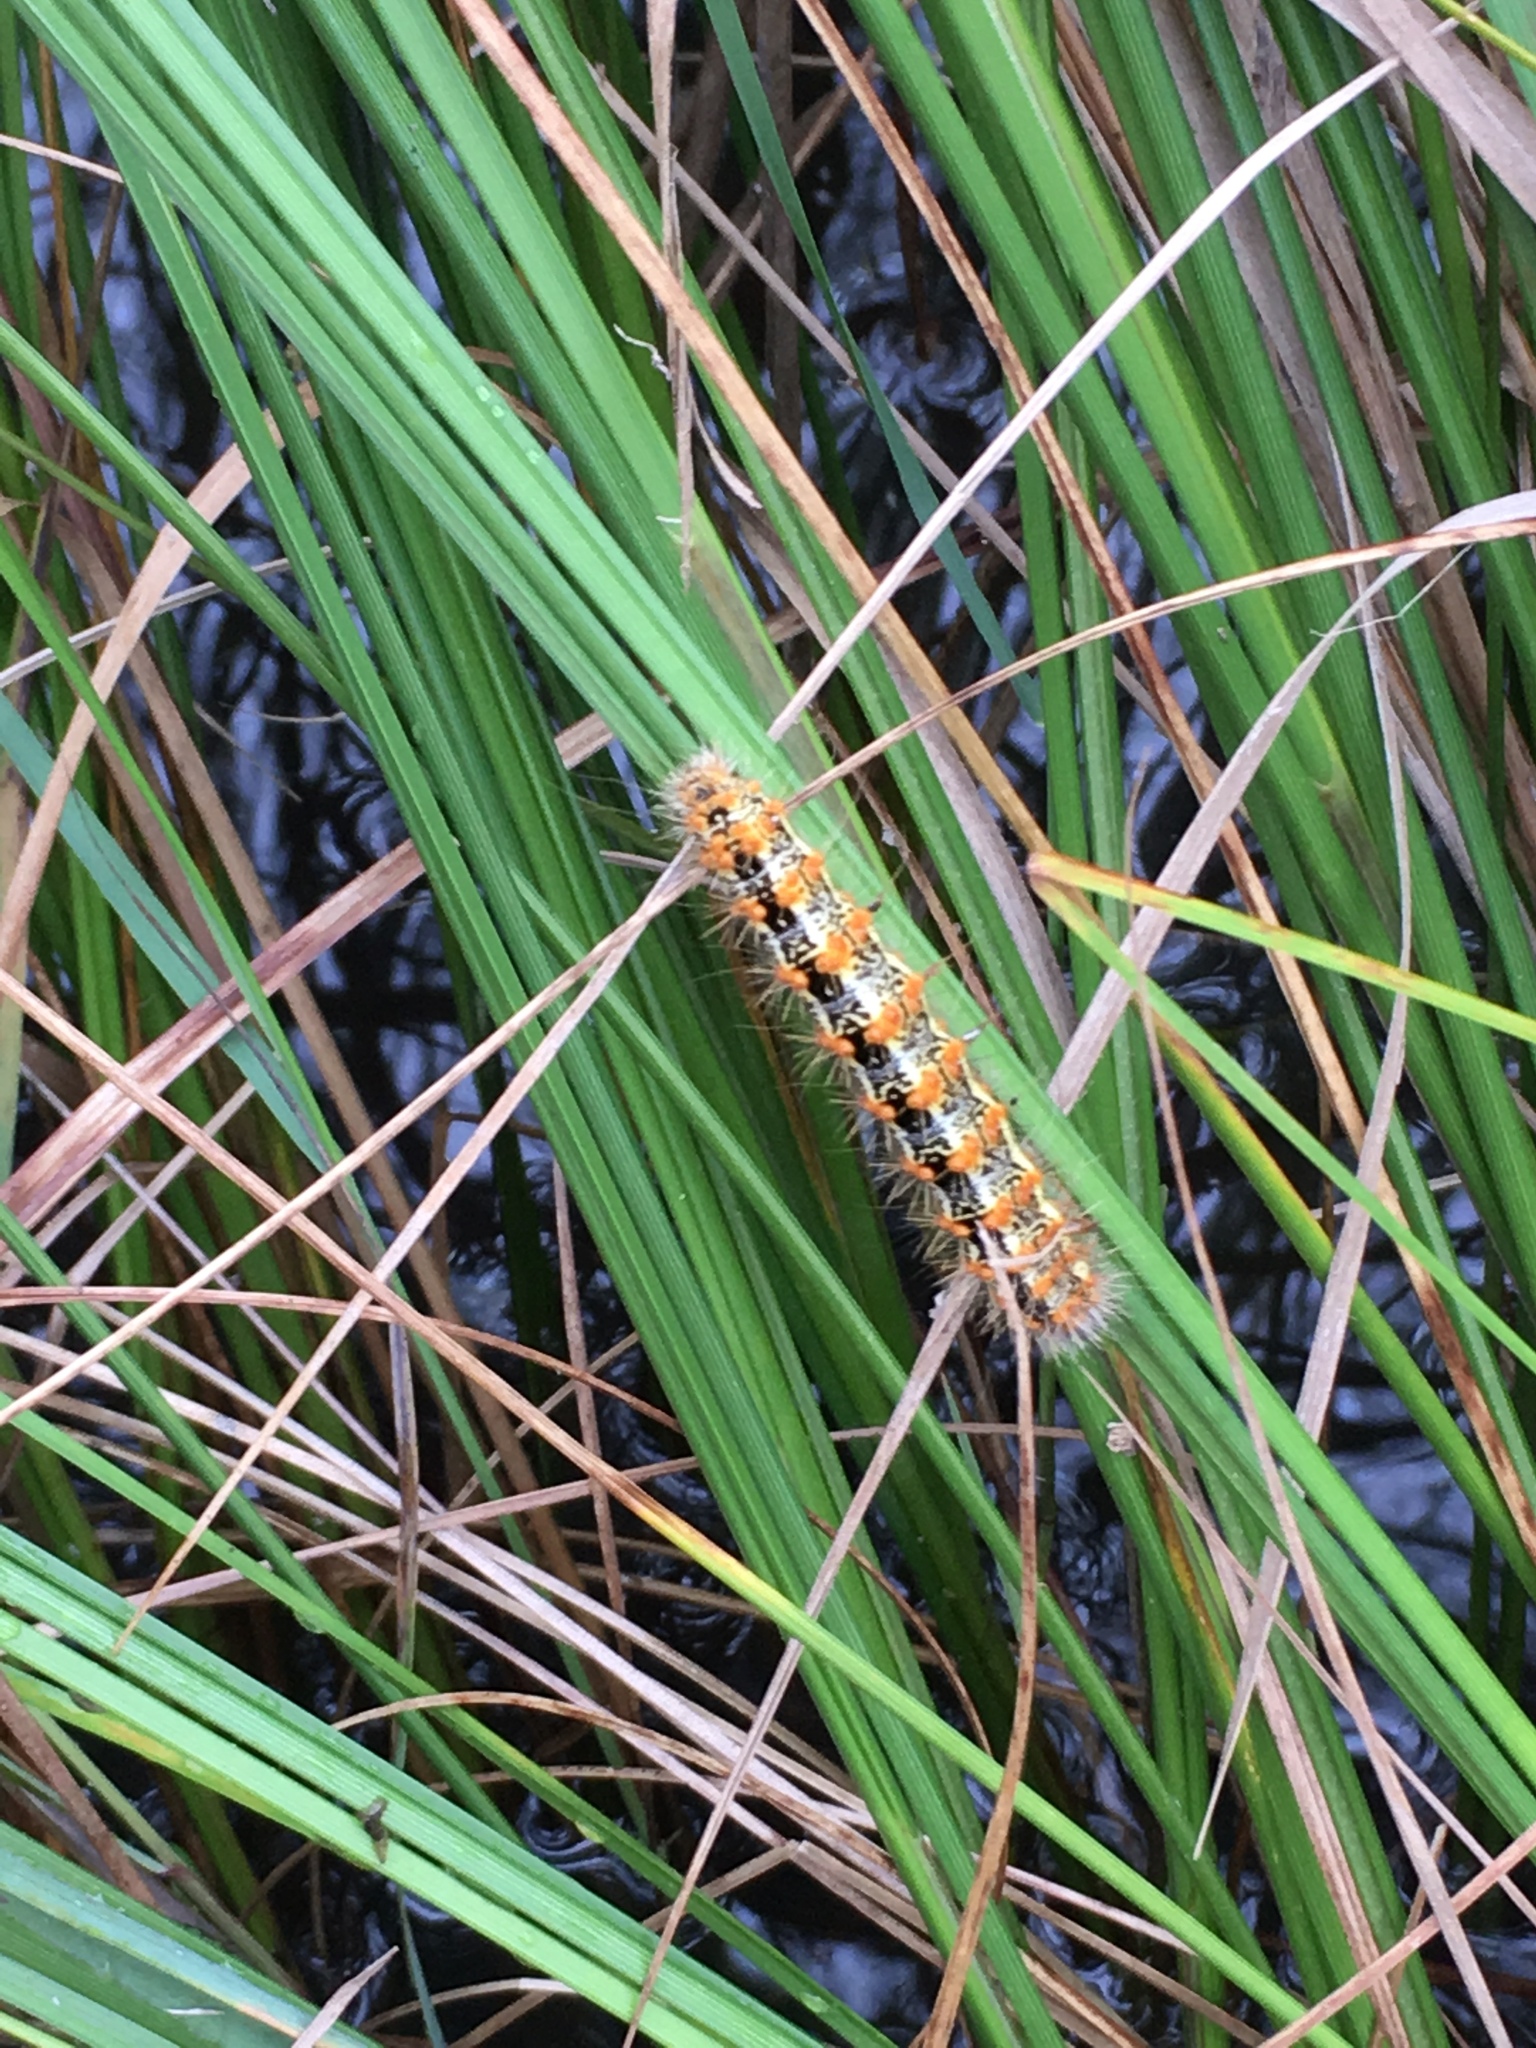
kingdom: Animalia
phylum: Arthropoda
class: Insecta
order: Lepidoptera
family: Noctuidae
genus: Acronicta
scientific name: Acronicta insularis
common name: Henry's marsh moth
